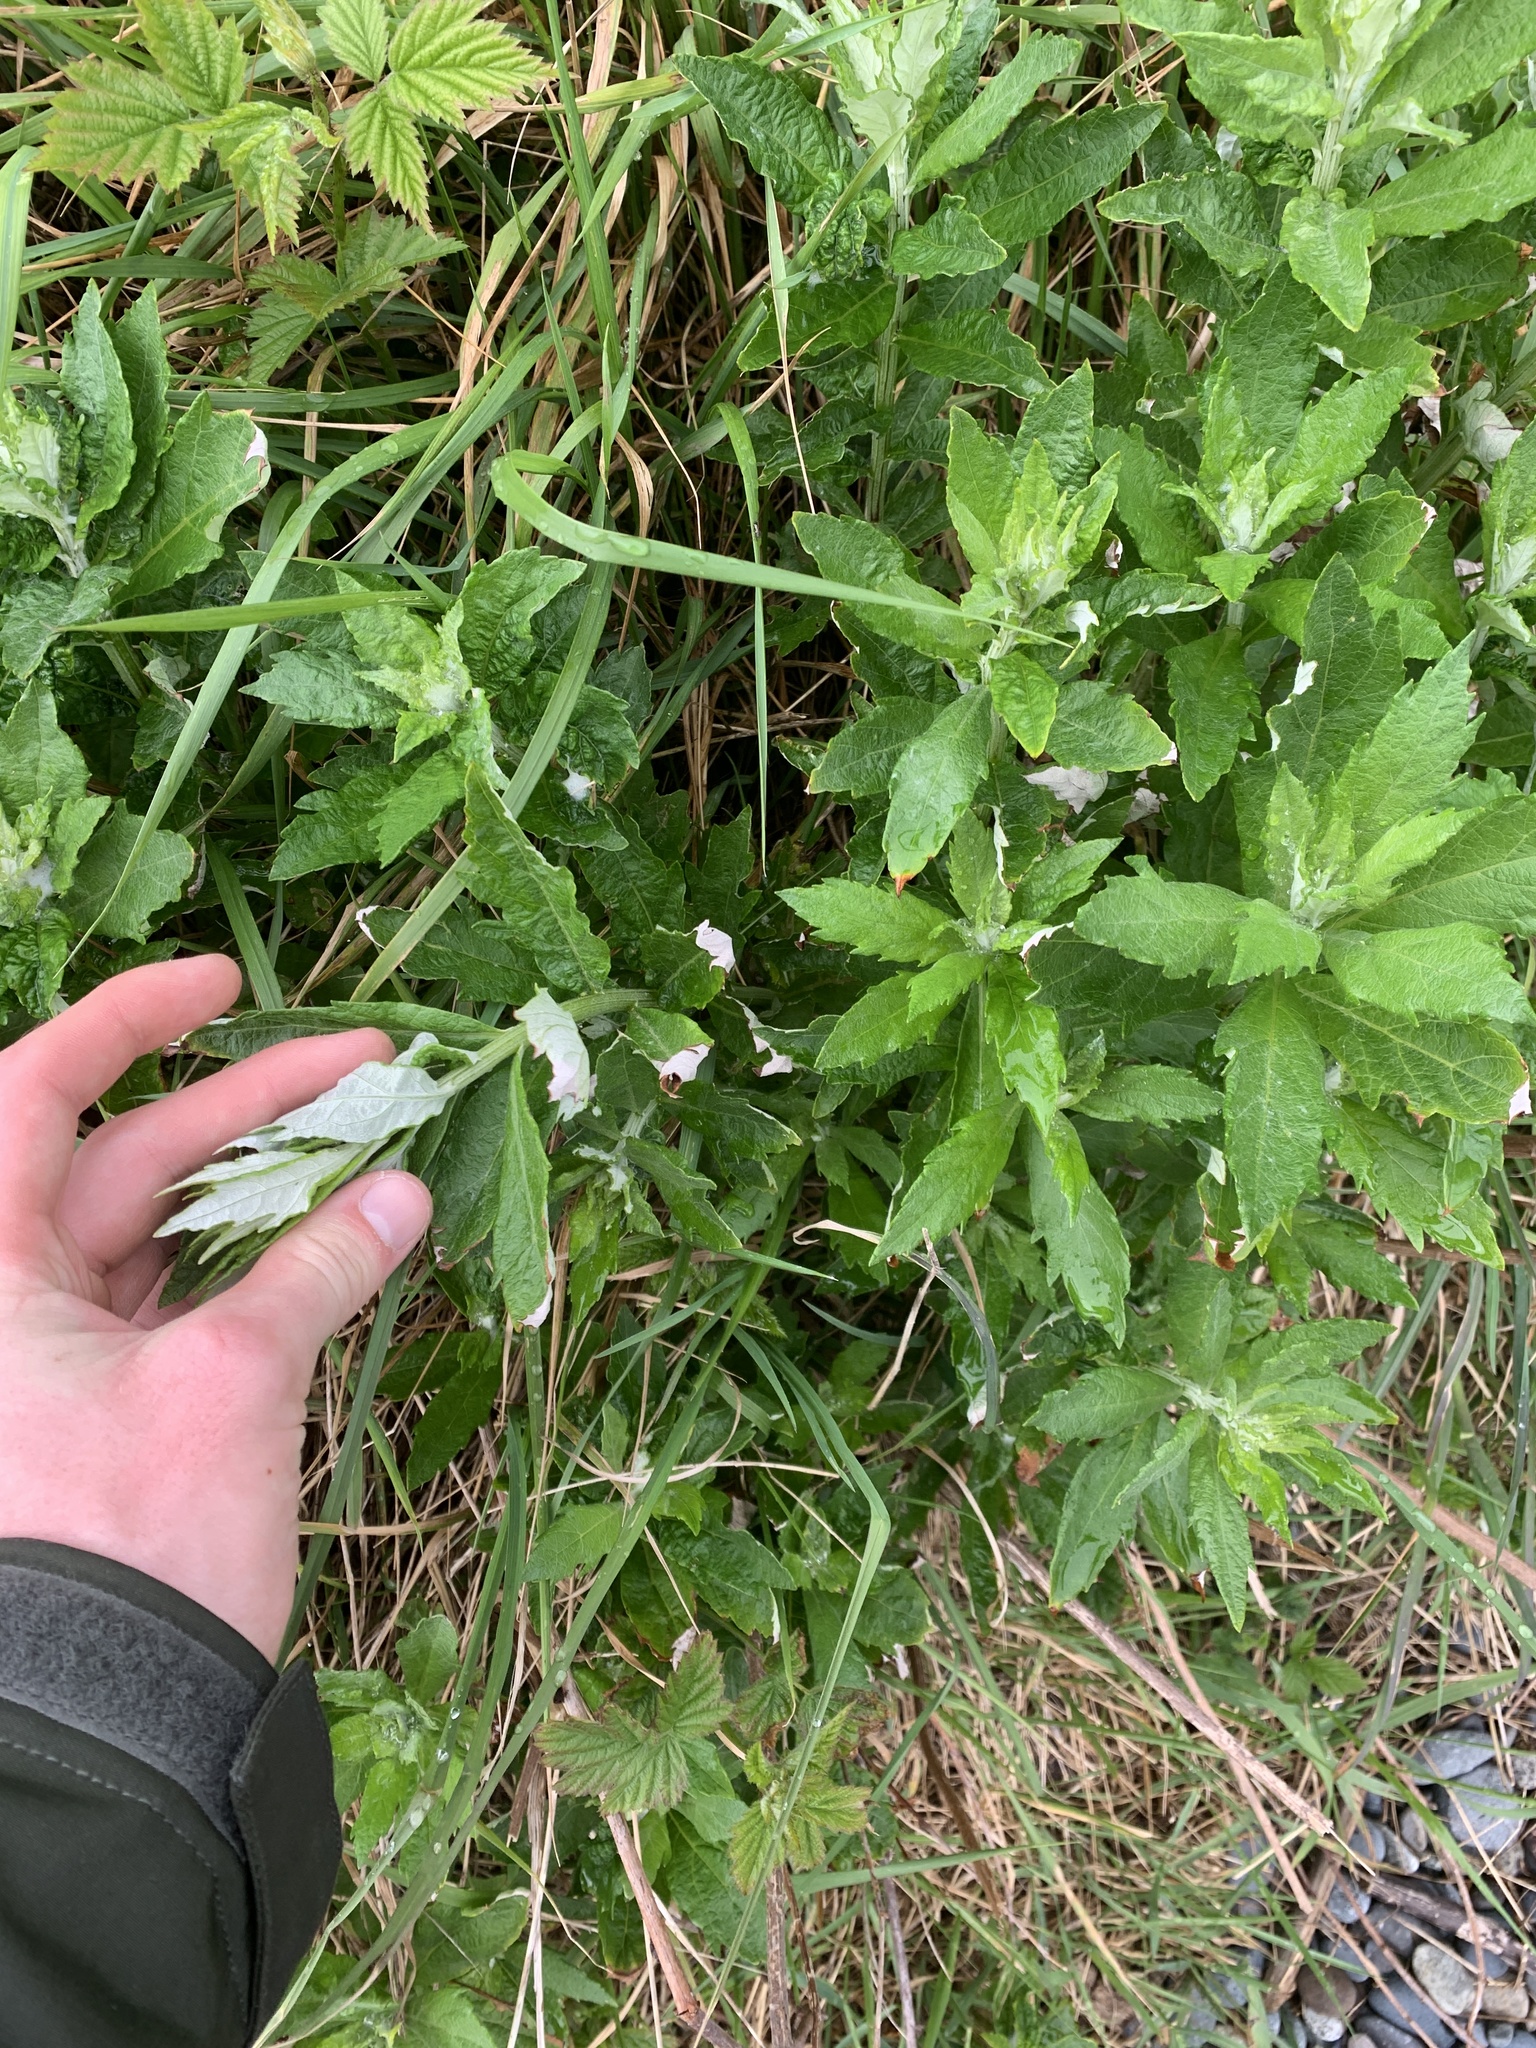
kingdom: Plantae
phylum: Tracheophyta
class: Magnoliopsida
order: Asterales
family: Asteraceae
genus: Artemisia
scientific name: Artemisia suksdorfii
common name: Suksdorf sagewort
